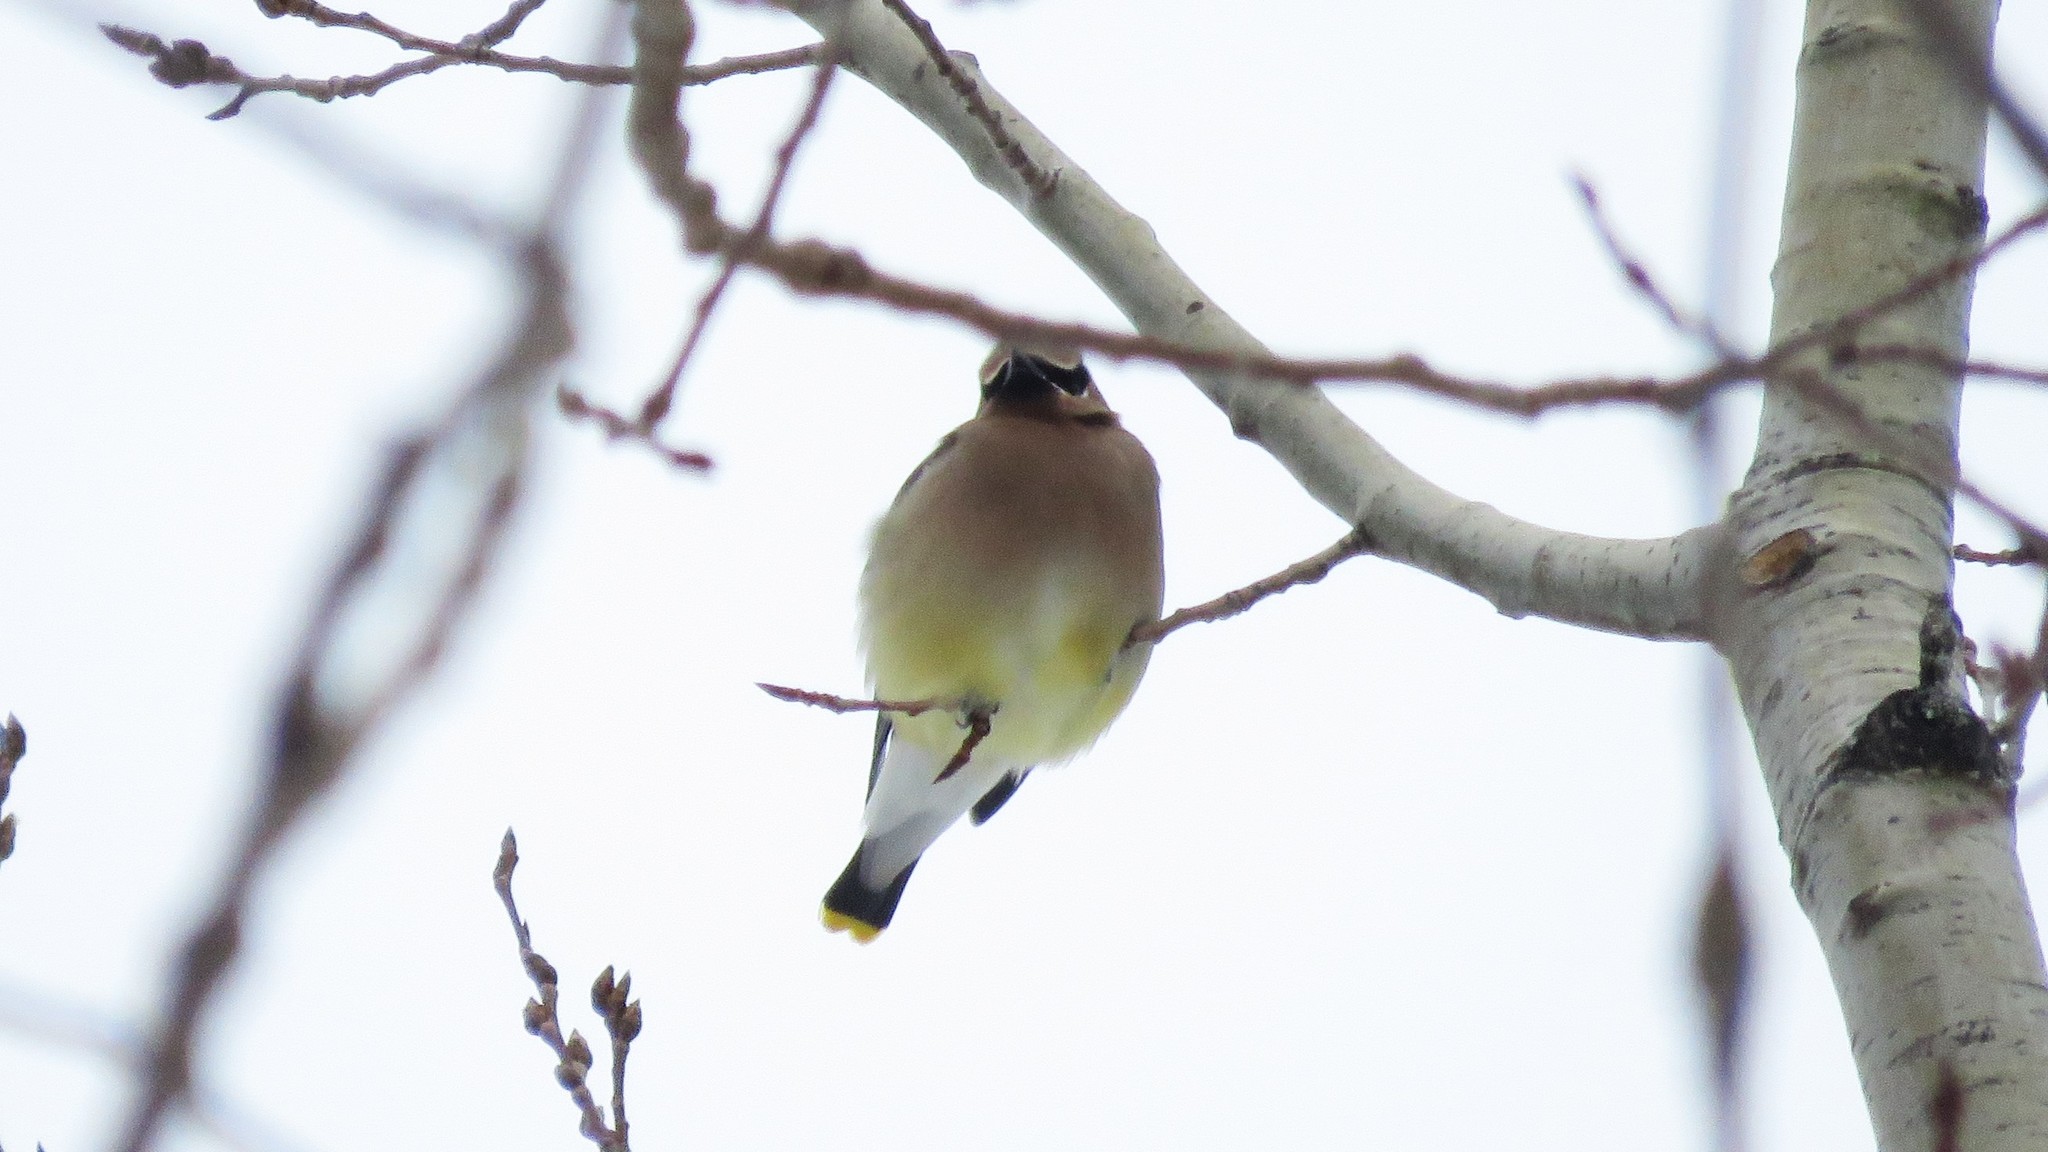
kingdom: Animalia
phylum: Chordata
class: Aves
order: Passeriformes
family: Bombycillidae
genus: Bombycilla
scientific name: Bombycilla cedrorum
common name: Cedar waxwing
